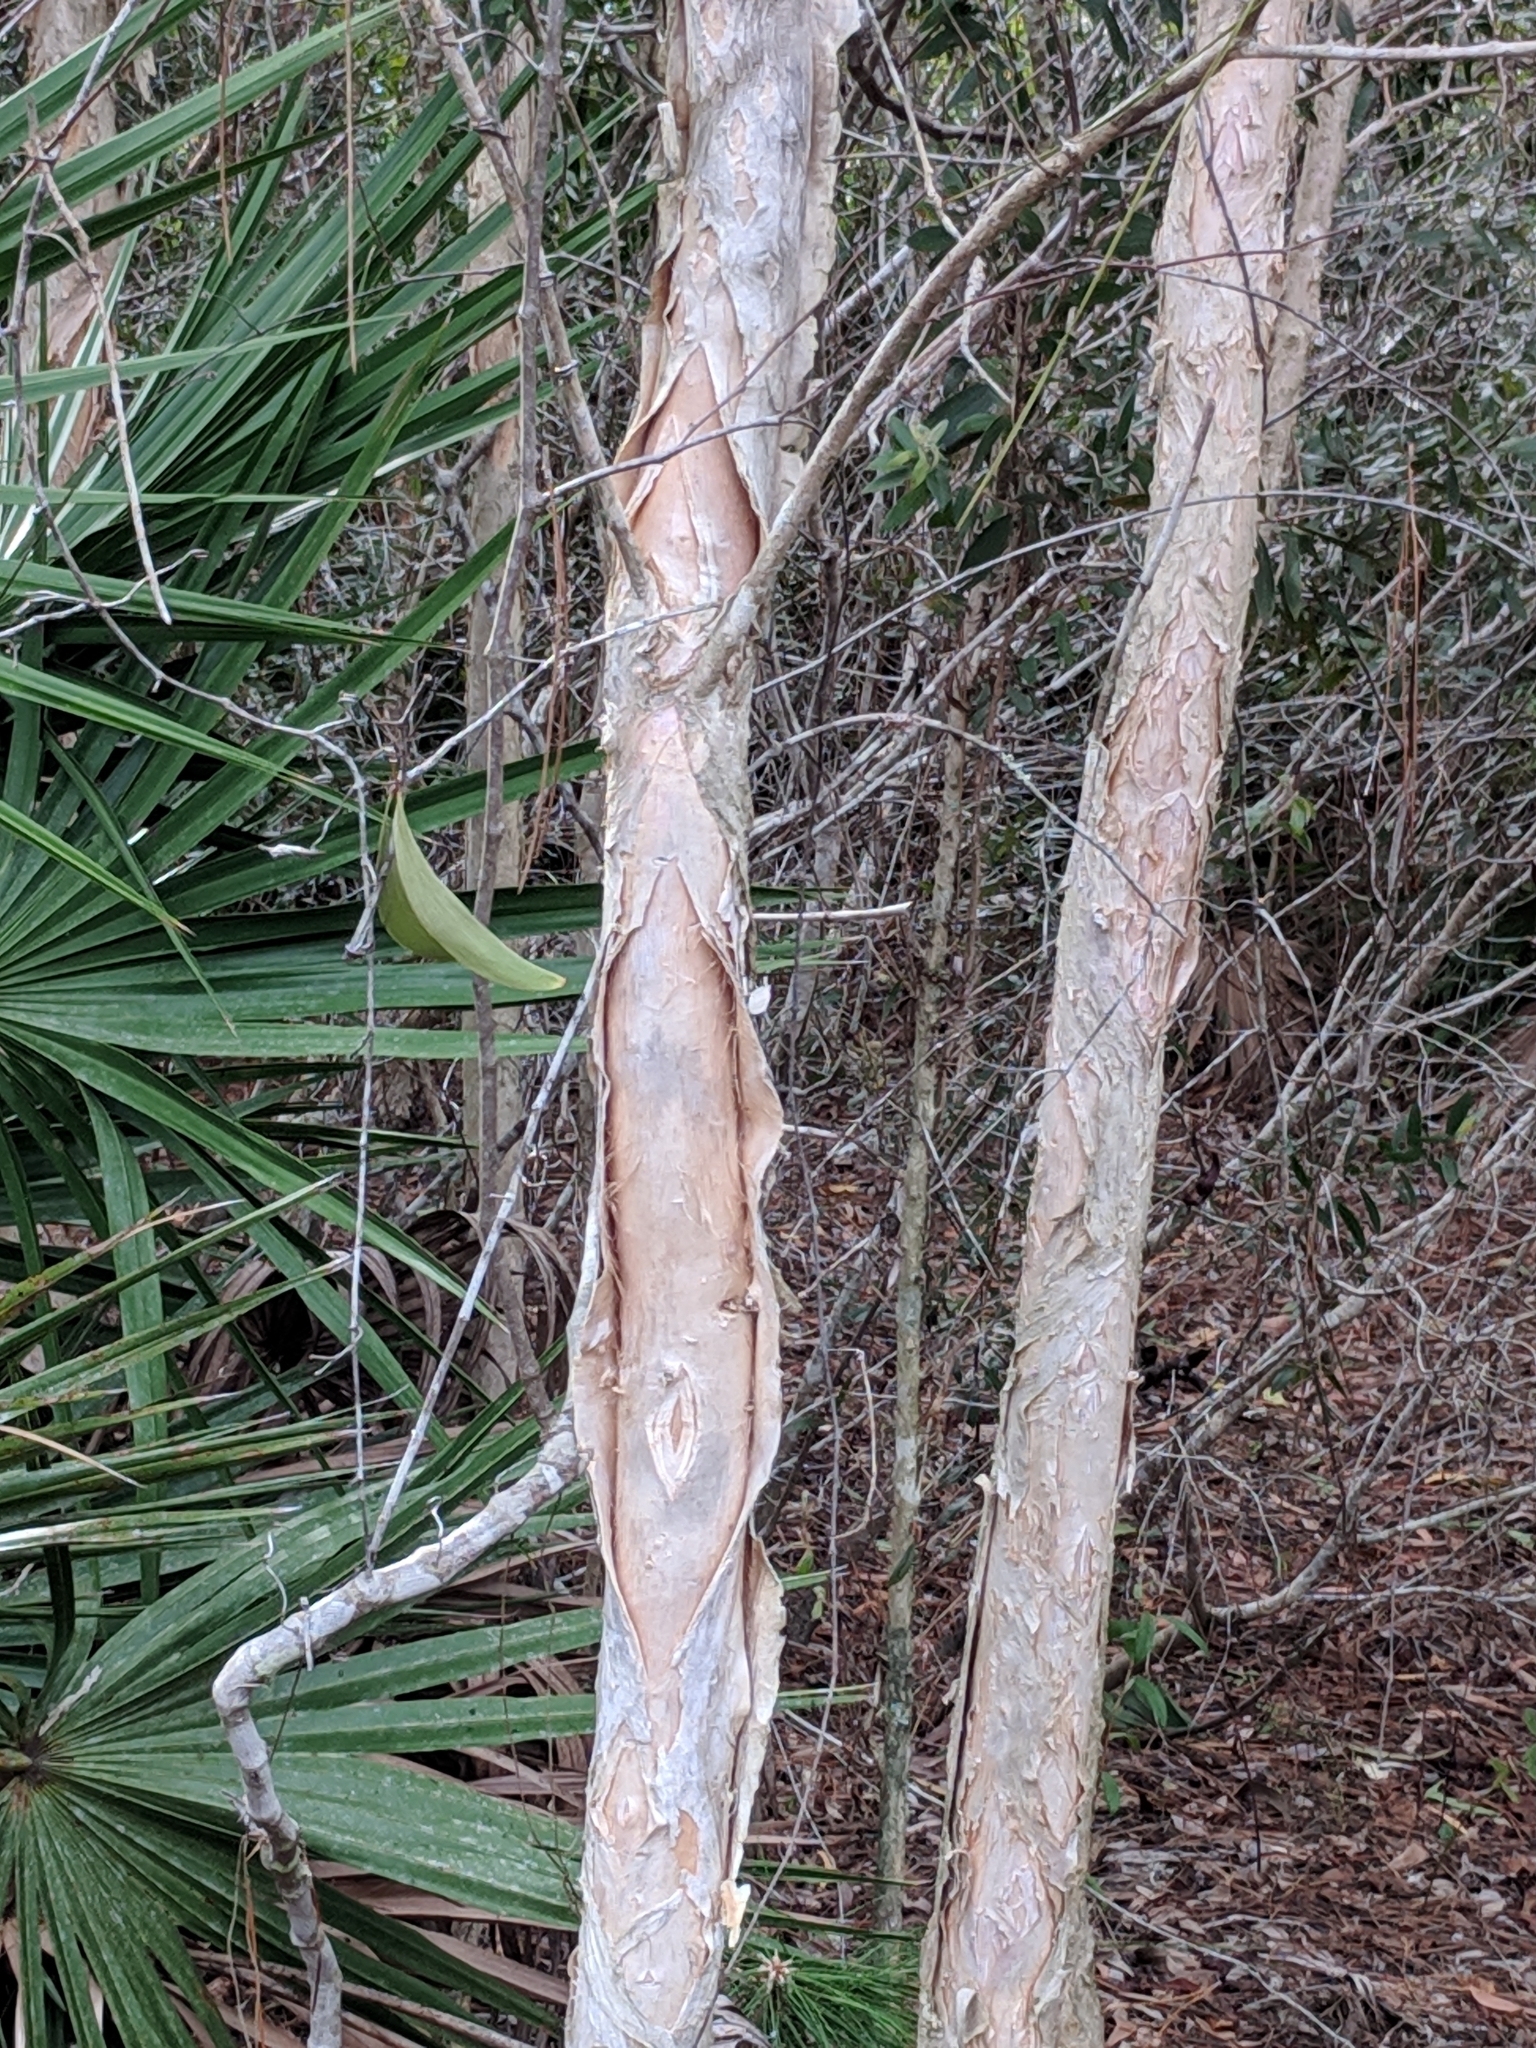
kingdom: Plantae
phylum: Tracheophyta
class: Magnoliopsida
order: Myrtales
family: Myrtaceae
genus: Melaleuca
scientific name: Melaleuca quinquenervia
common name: Punktree
